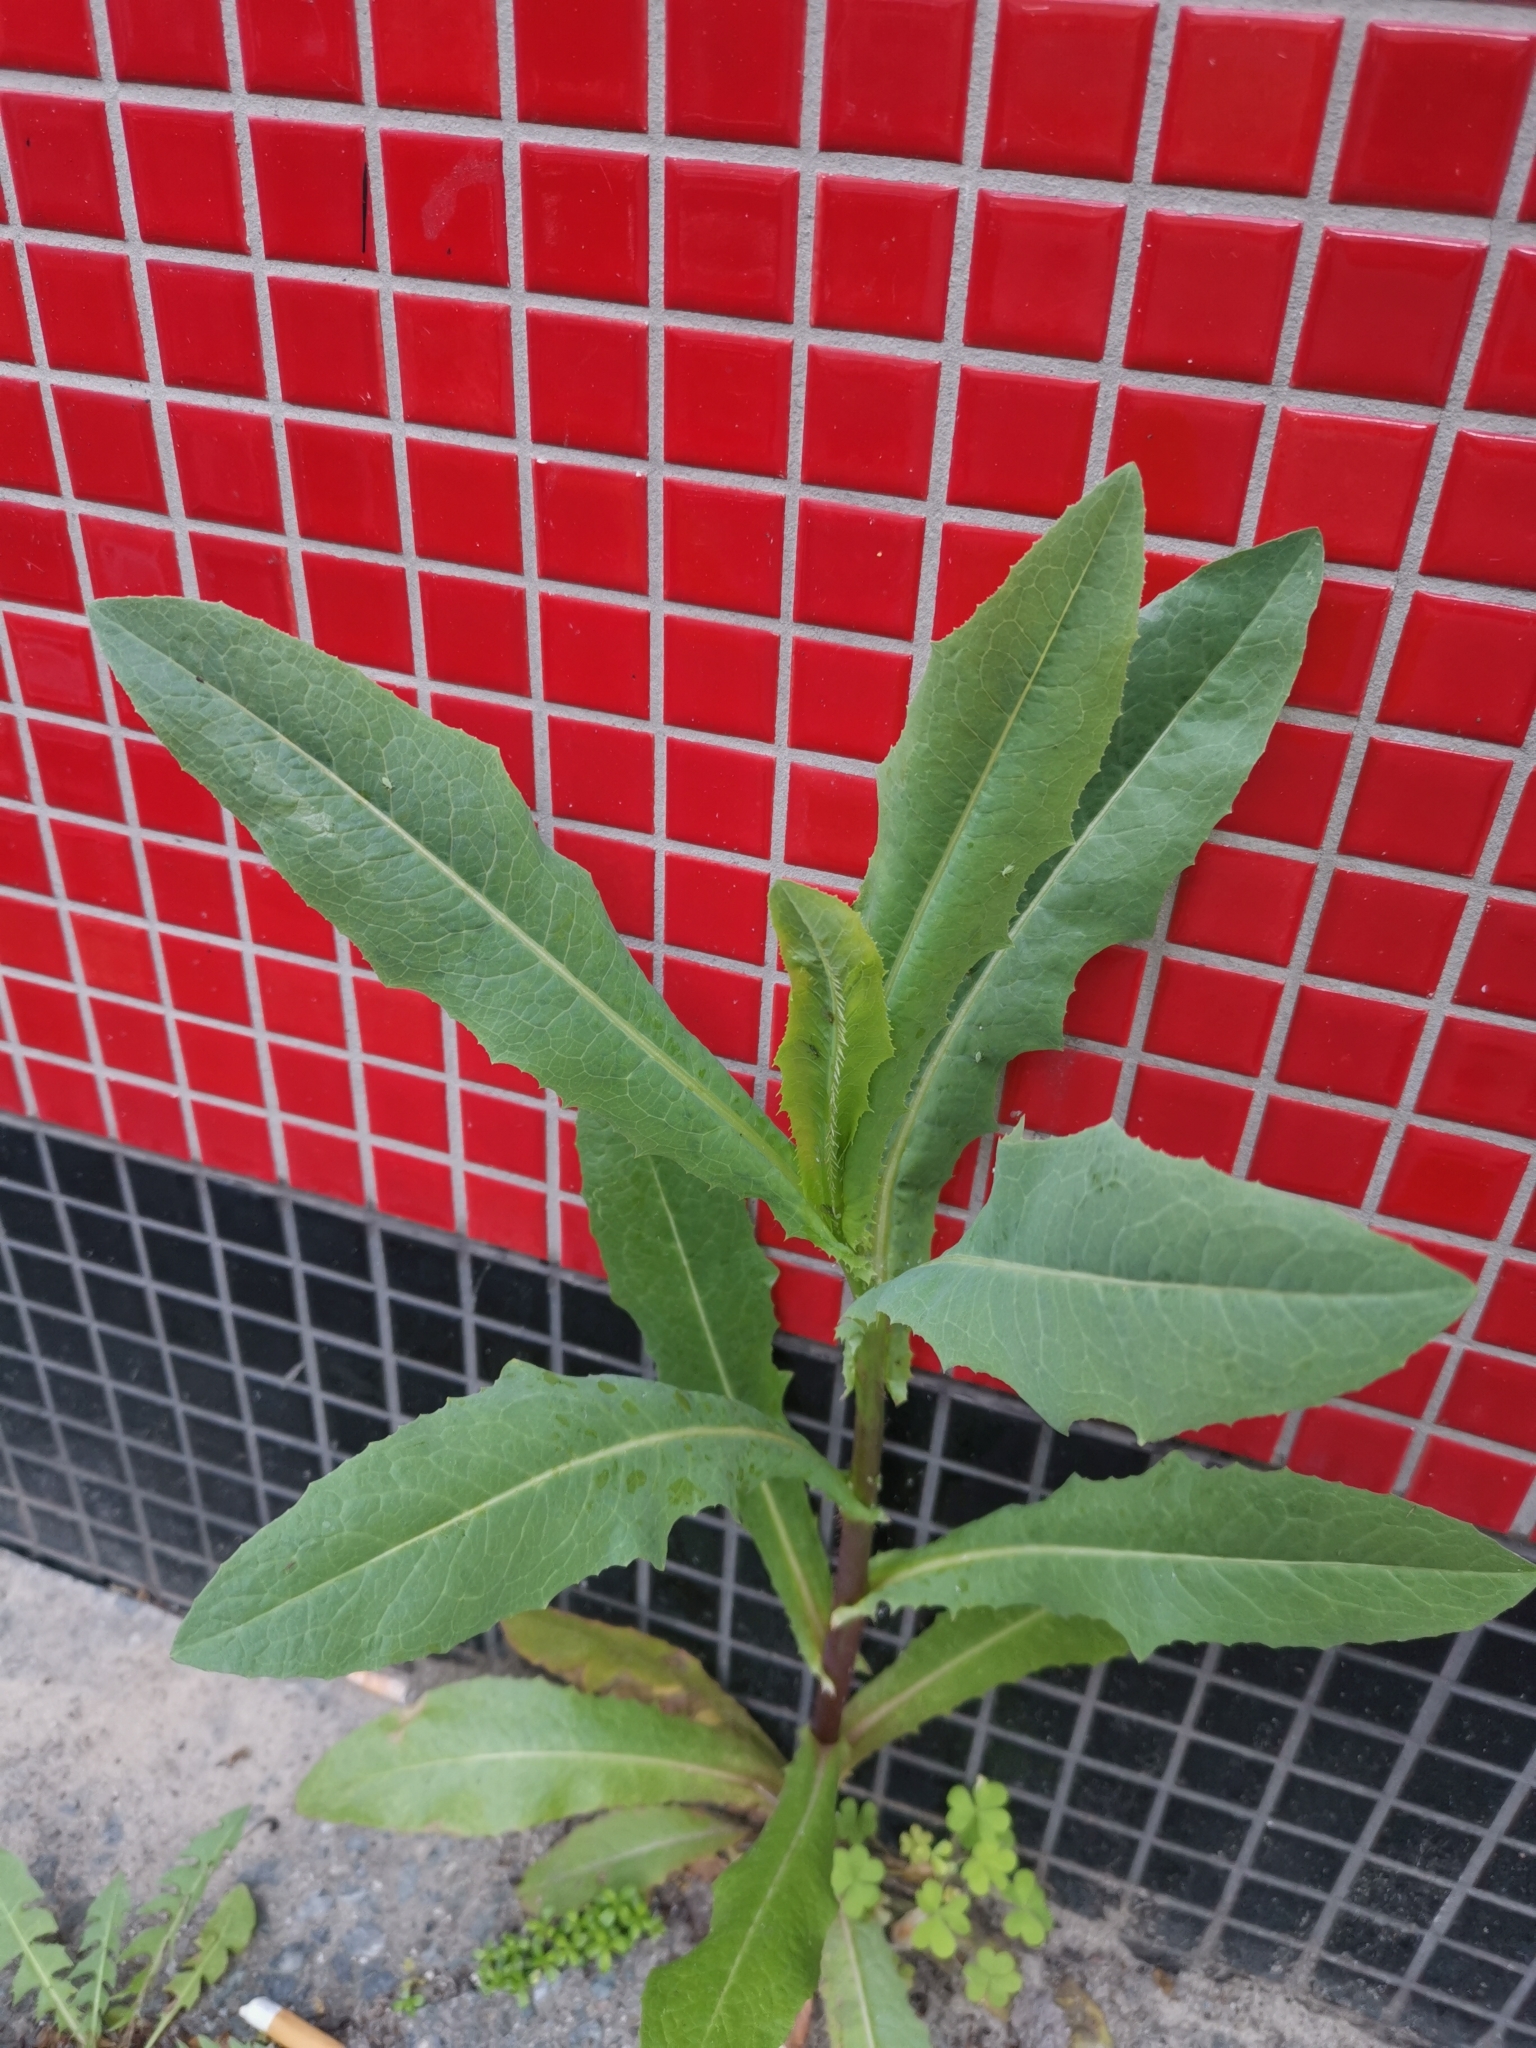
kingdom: Plantae
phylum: Tracheophyta
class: Magnoliopsida
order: Asterales
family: Asteraceae
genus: Lactuca
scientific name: Lactuca serriola
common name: Prickly lettuce
